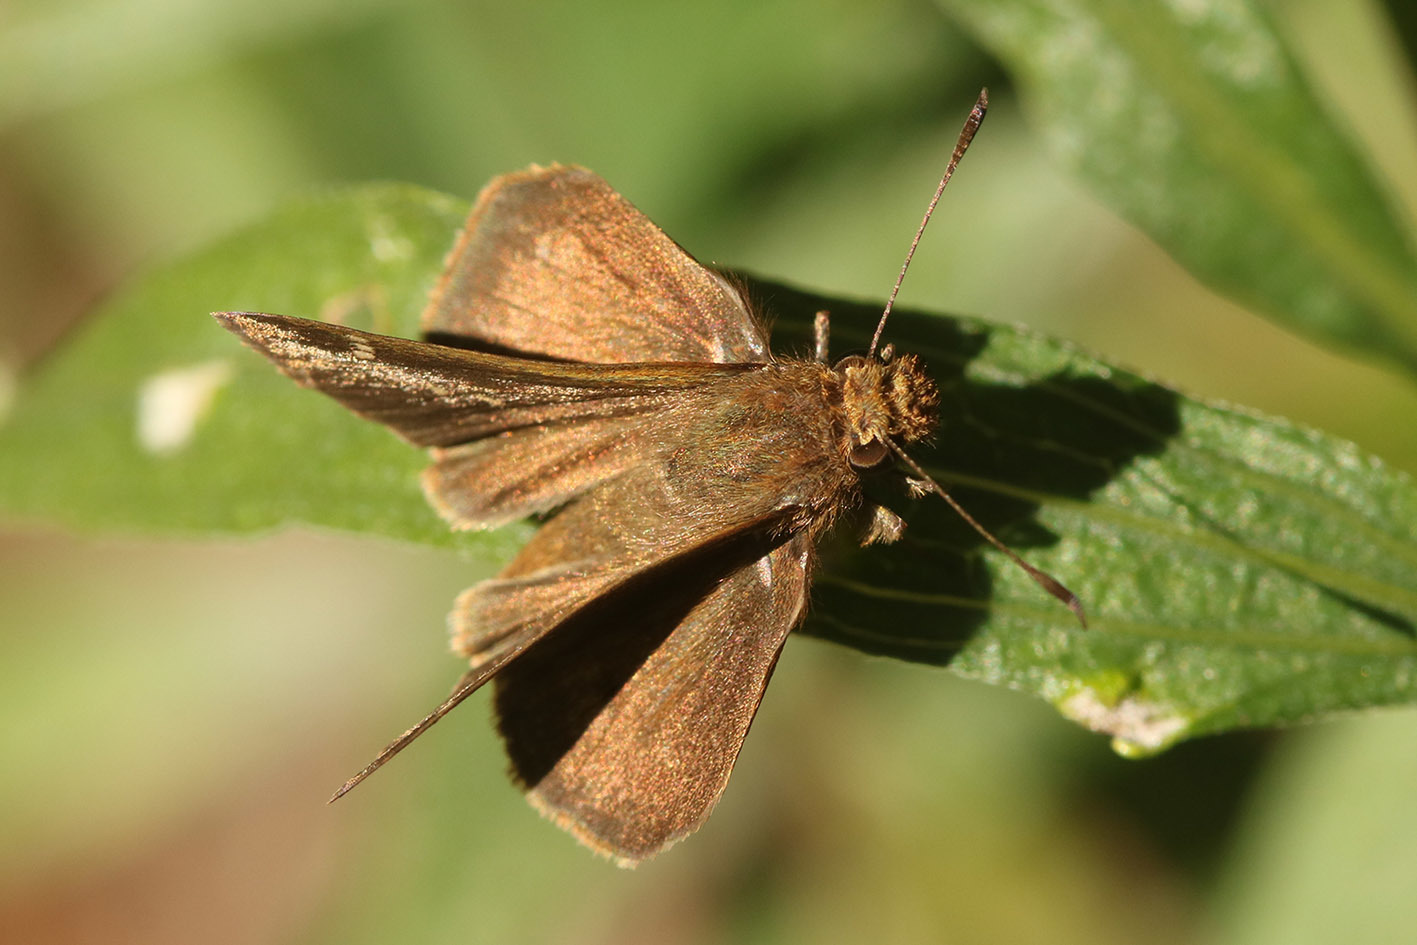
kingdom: Animalia
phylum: Arthropoda
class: Insecta
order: Lepidoptera
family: Hesperiidae
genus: Cymaenes
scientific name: Cymaenes
